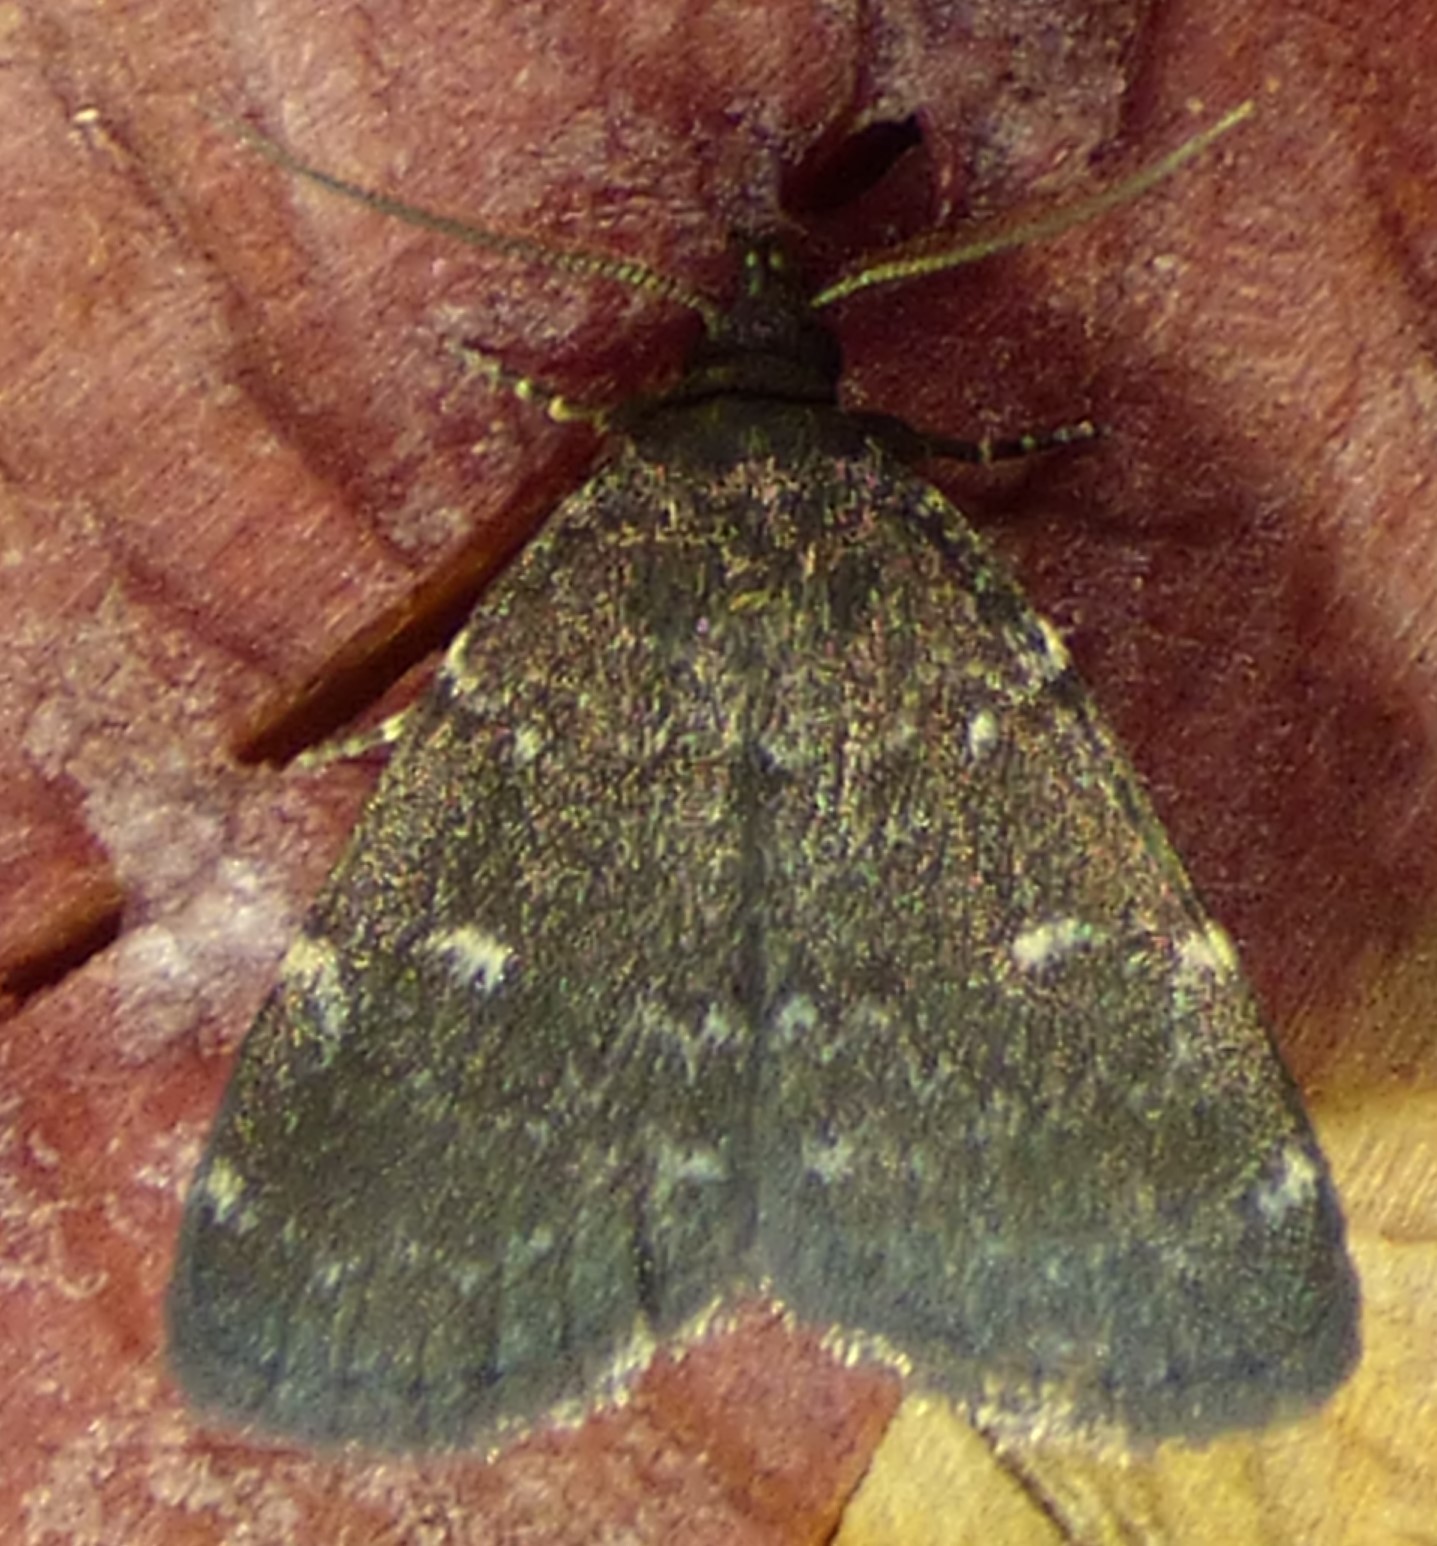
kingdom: Animalia
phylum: Arthropoda
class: Insecta
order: Lepidoptera
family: Erebidae
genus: Idia
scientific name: Idia julia
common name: Julia's idia moth
